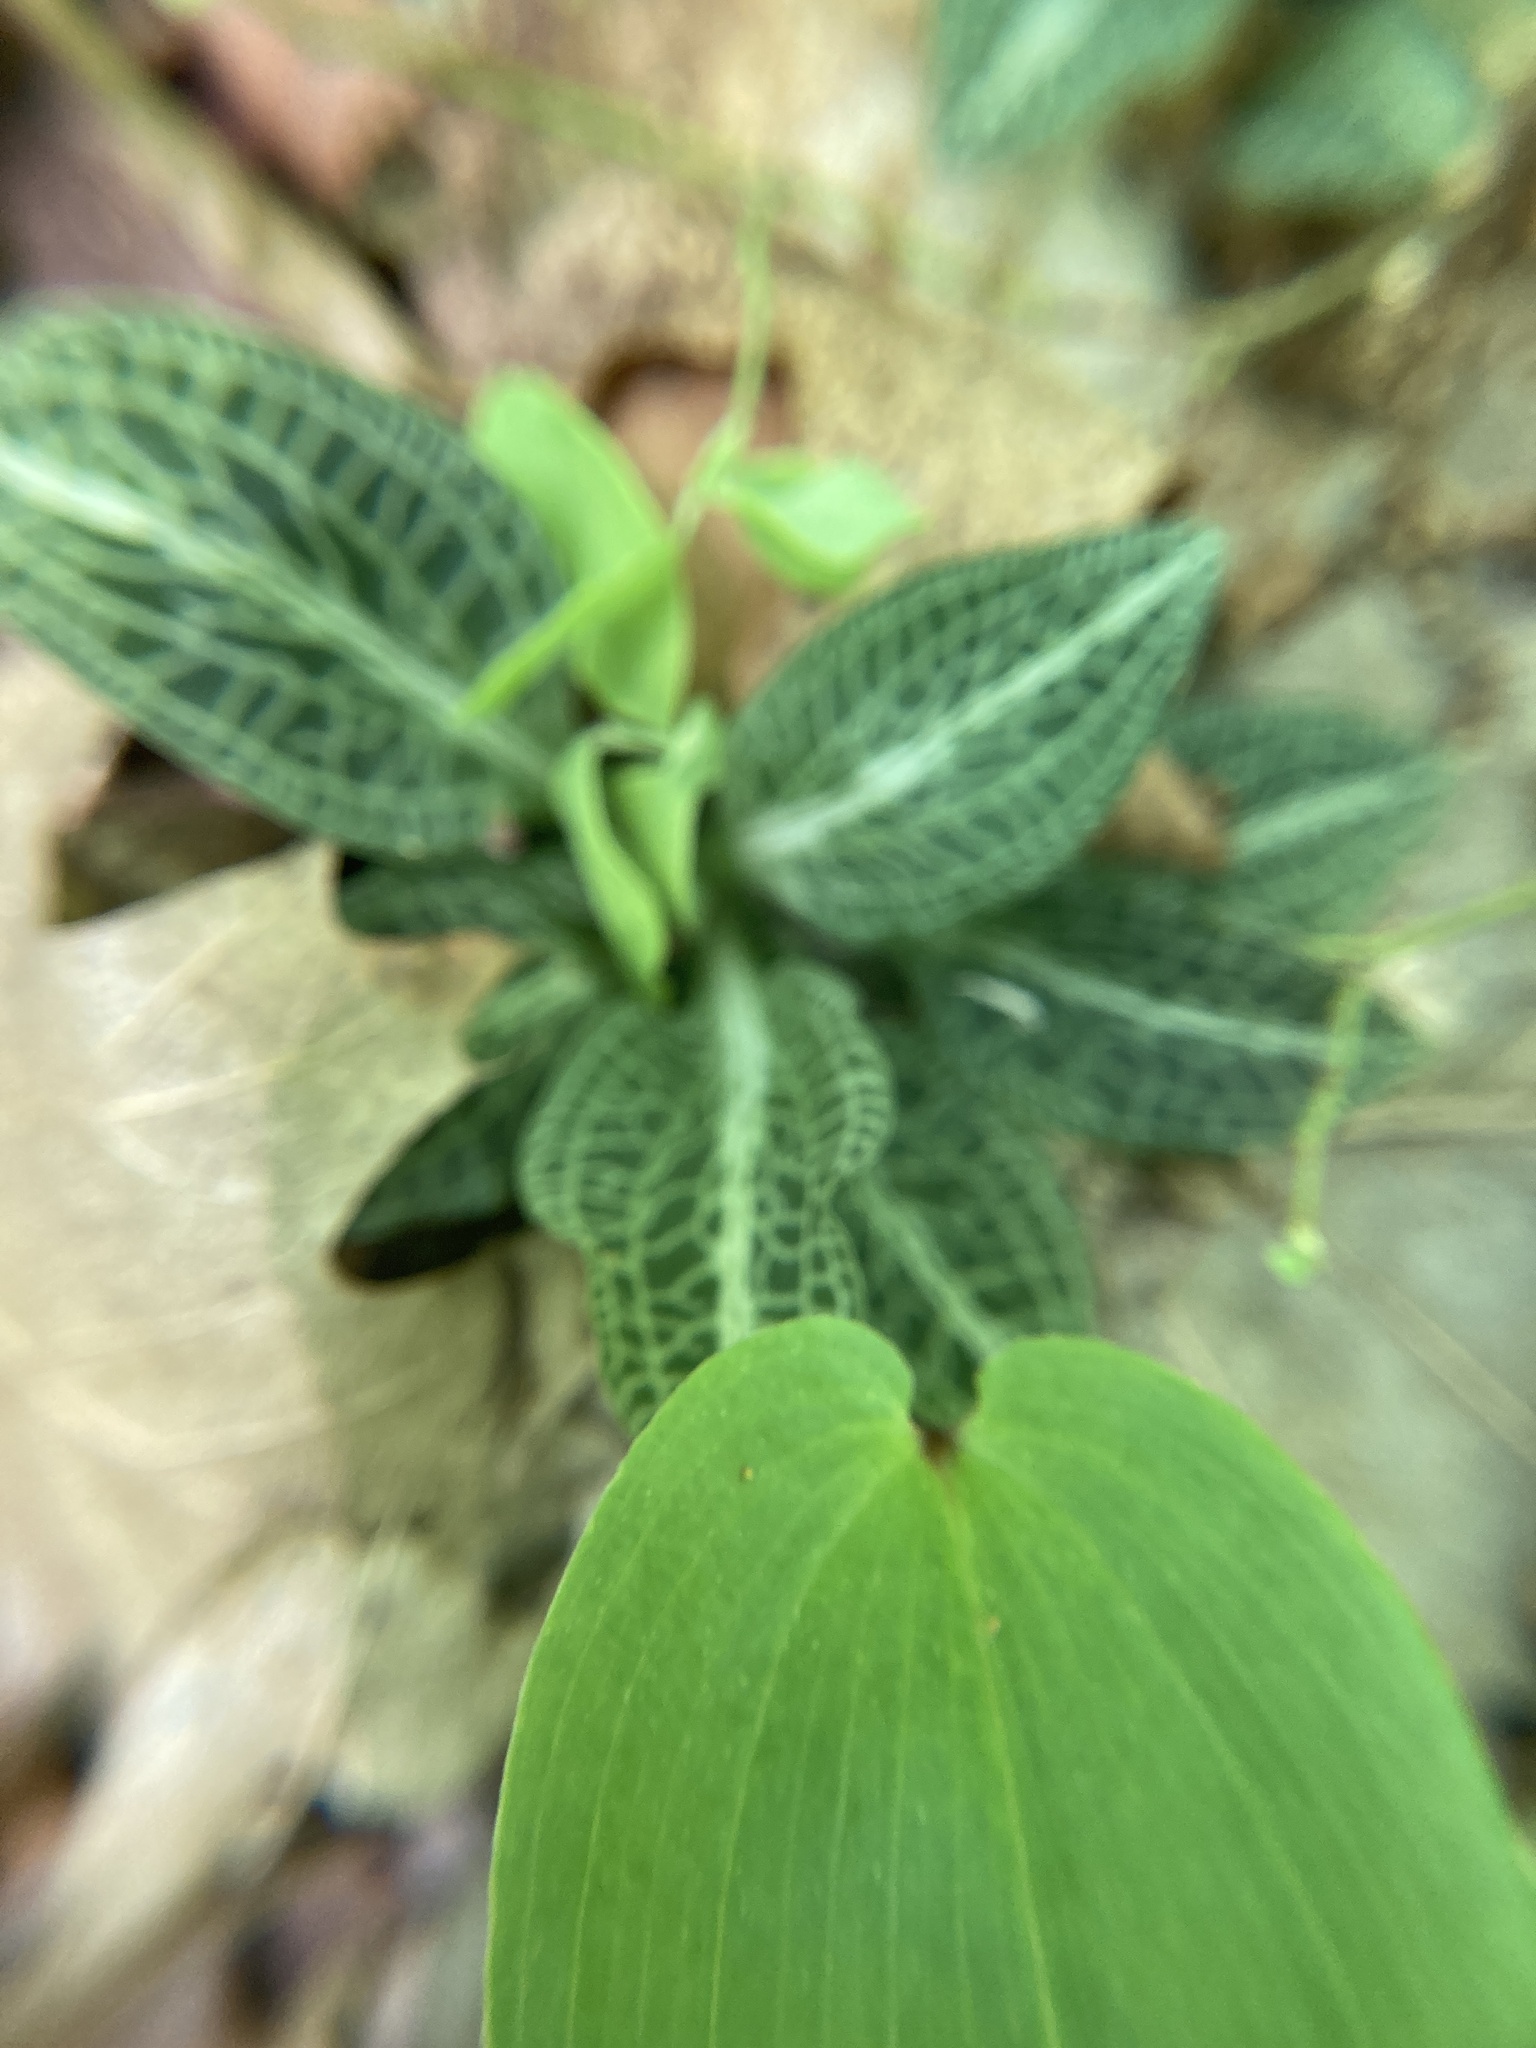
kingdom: Plantae
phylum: Tracheophyta
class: Liliopsida
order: Asparagales
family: Orchidaceae
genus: Goodyera
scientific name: Goodyera pubescens
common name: Downy rattlesnake-plantain
